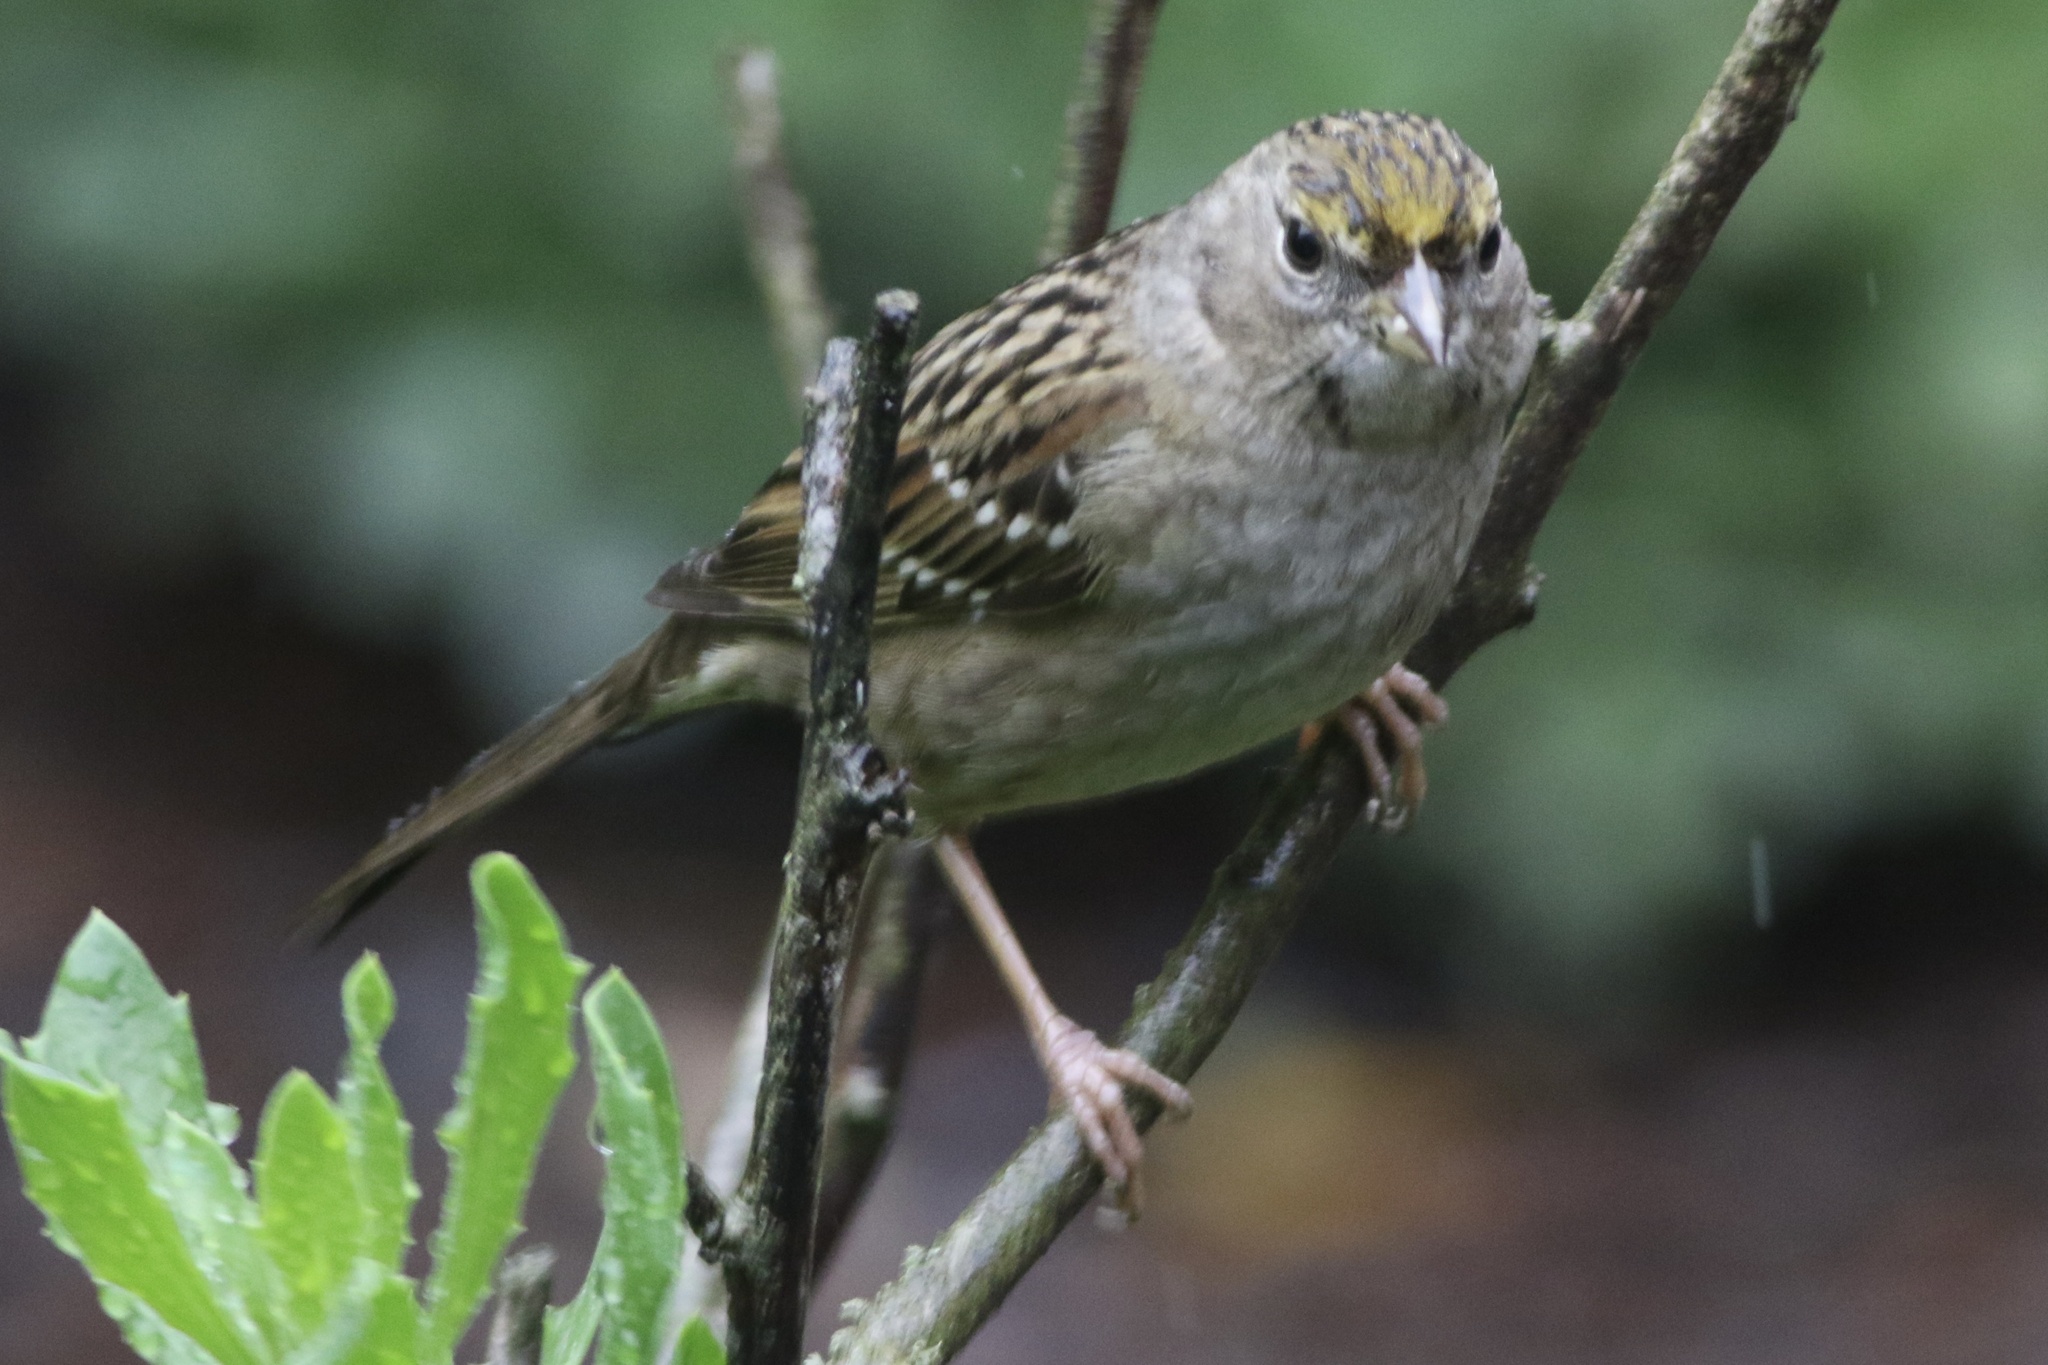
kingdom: Animalia
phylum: Chordata
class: Aves
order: Passeriformes
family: Passerellidae
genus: Zonotrichia
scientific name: Zonotrichia atricapilla
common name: Golden-crowned sparrow
